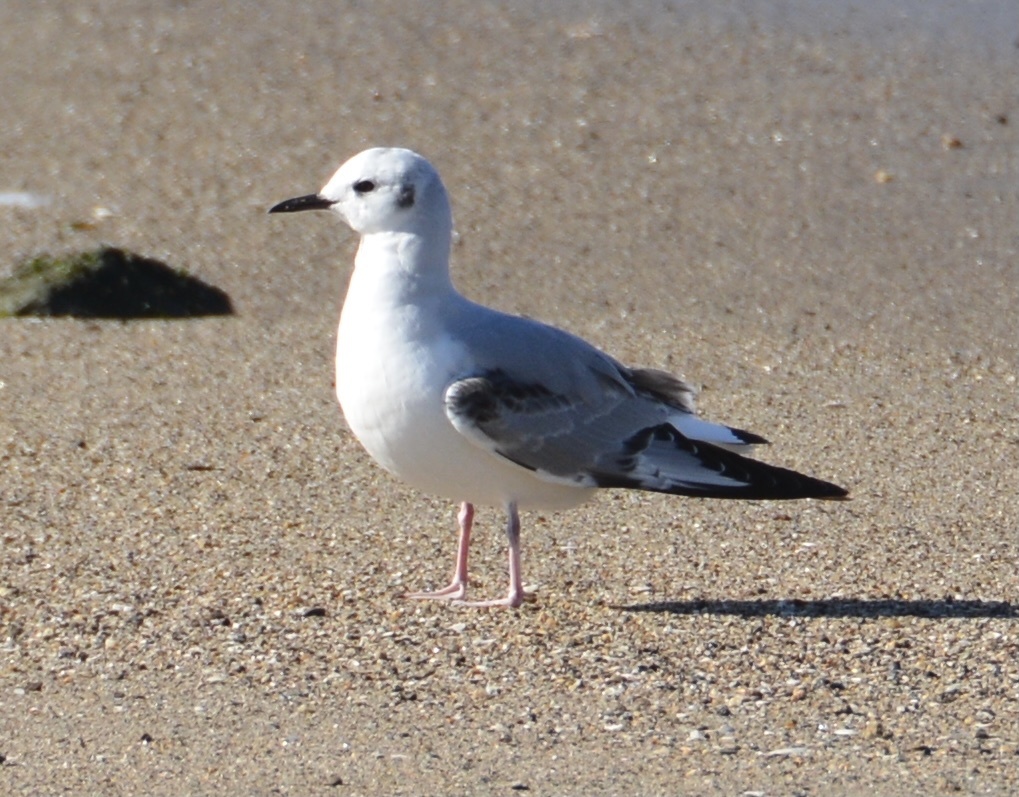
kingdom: Animalia
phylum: Chordata
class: Aves
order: Charadriiformes
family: Laridae
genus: Chroicocephalus
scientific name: Chroicocephalus philadelphia
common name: Bonaparte's gull
